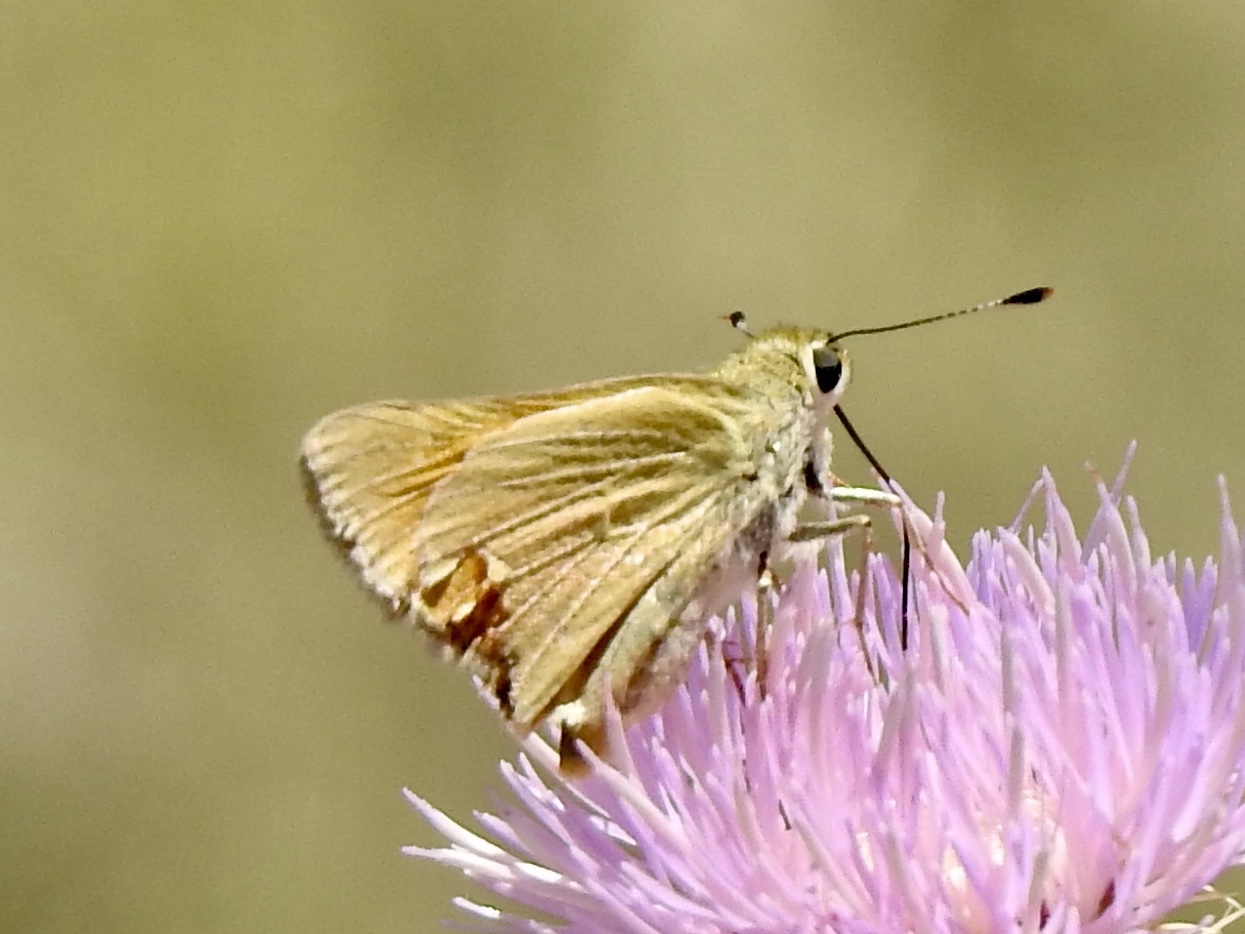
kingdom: Animalia
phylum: Arthropoda
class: Insecta
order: Lepidoptera
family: Hesperiidae
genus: Ochlodes
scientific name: Ochlodes sylvanoides
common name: Woodland skipper
